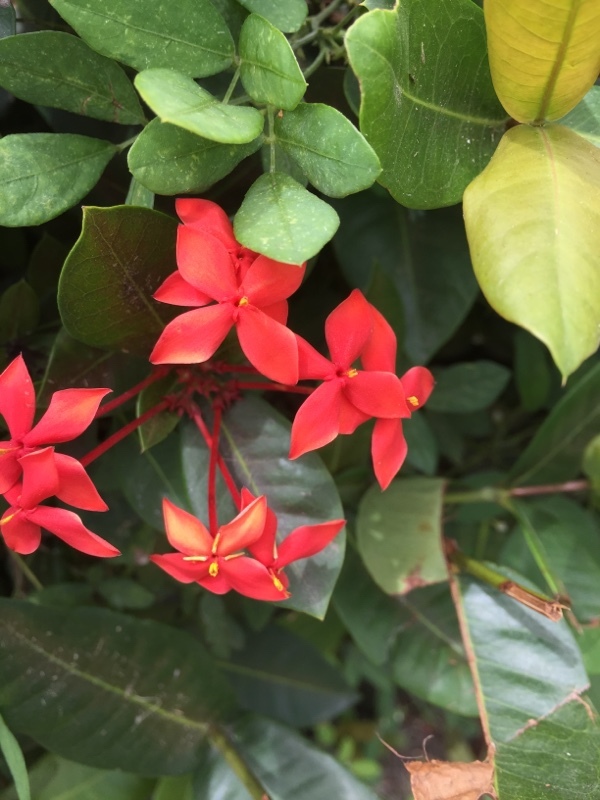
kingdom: Plantae
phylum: Tracheophyta
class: Magnoliopsida
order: Gentianales
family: Rubiaceae
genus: Ixora
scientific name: Ixora coccinea
